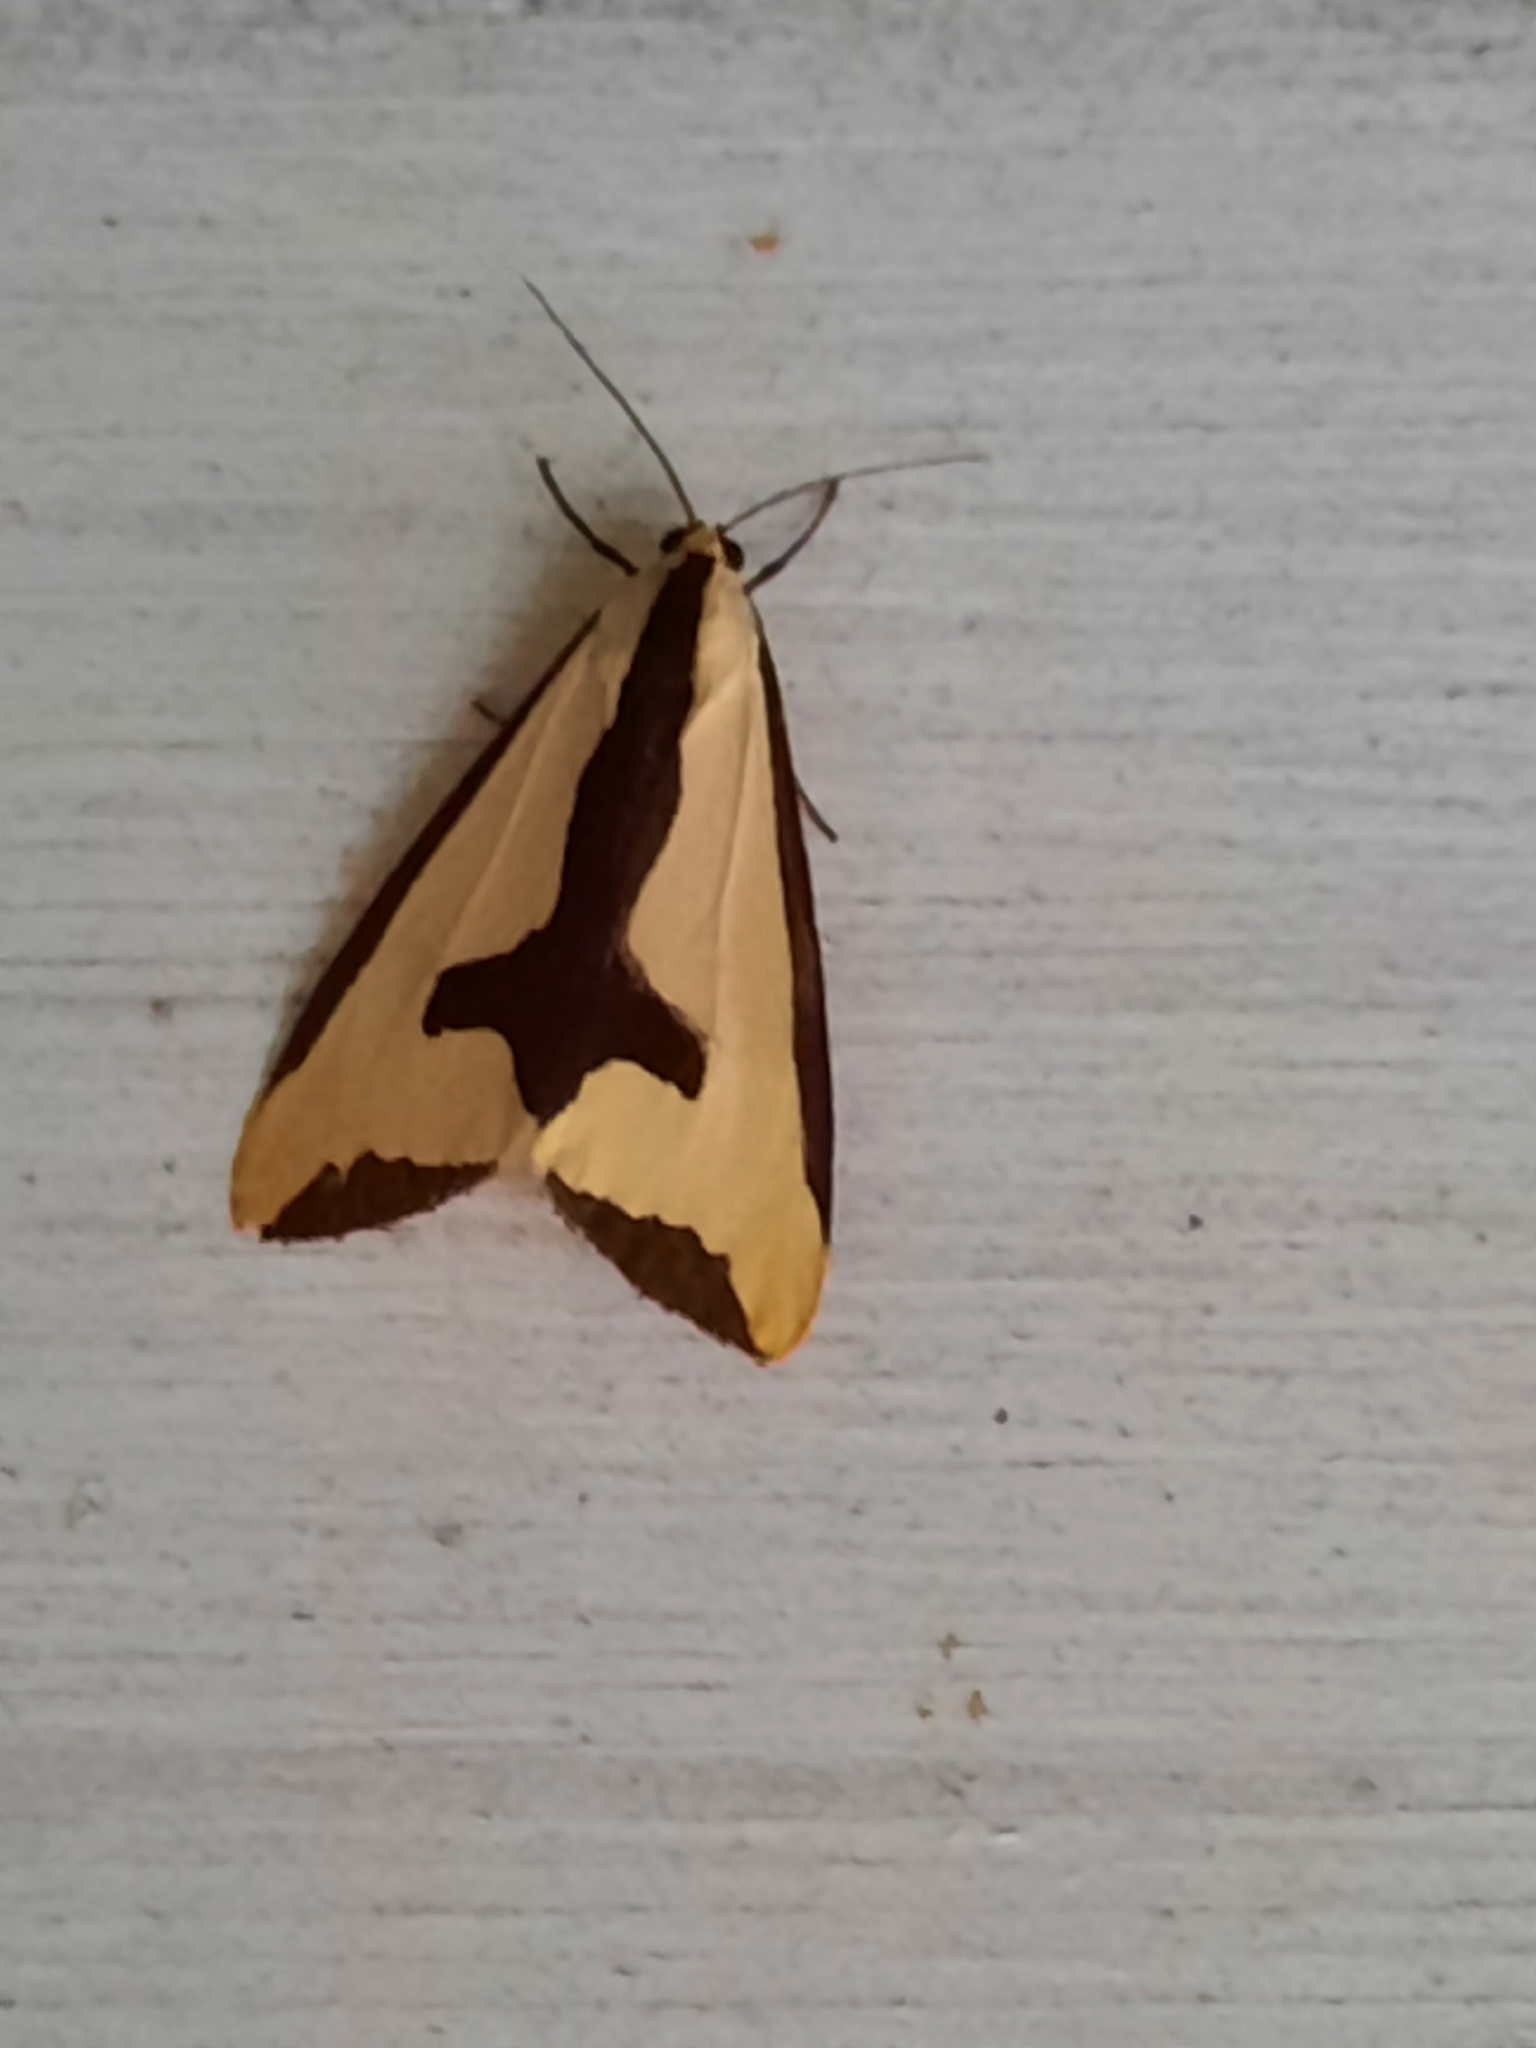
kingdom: Animalia
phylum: Arthropoda
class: Insecta
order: Lepidoptera
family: Erebidae
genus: Haploa
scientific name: Haploa clymene
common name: Clymene moth
